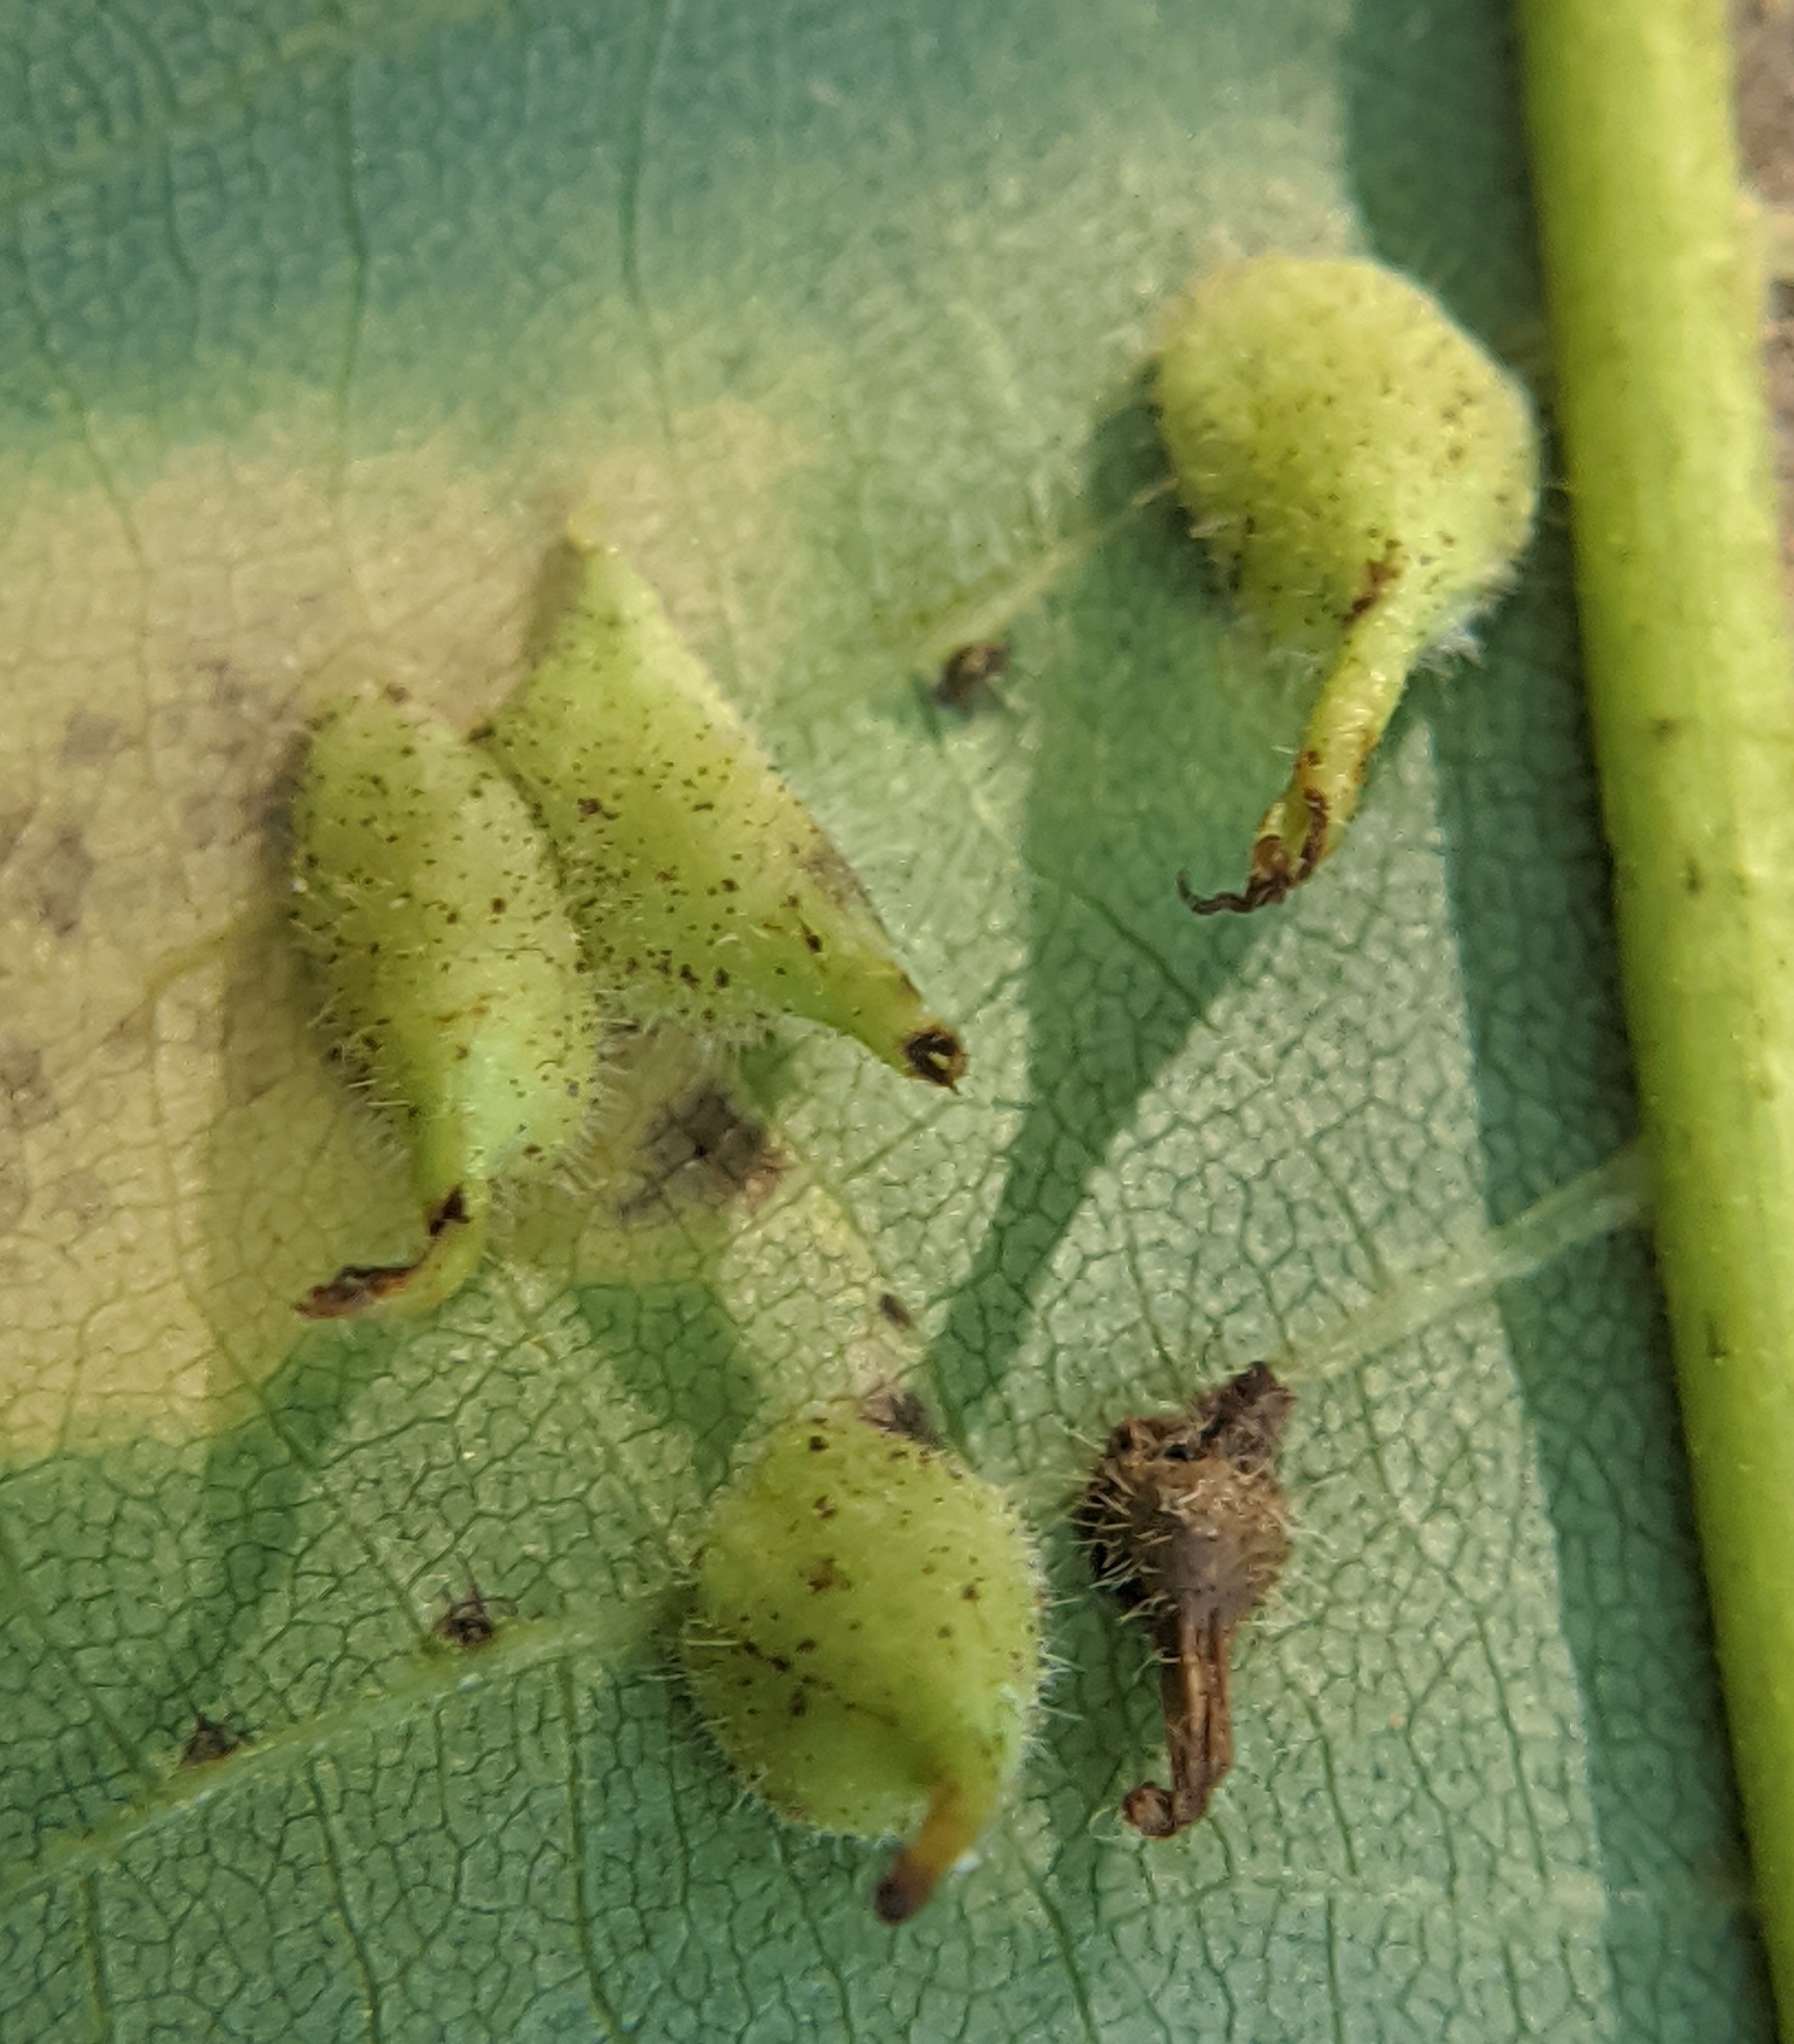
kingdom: Animalia
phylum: Arthropoda
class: Insecta
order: Diptera
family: Cecidomyiidae
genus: Caryomyia
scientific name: Caryomyia inclinata
